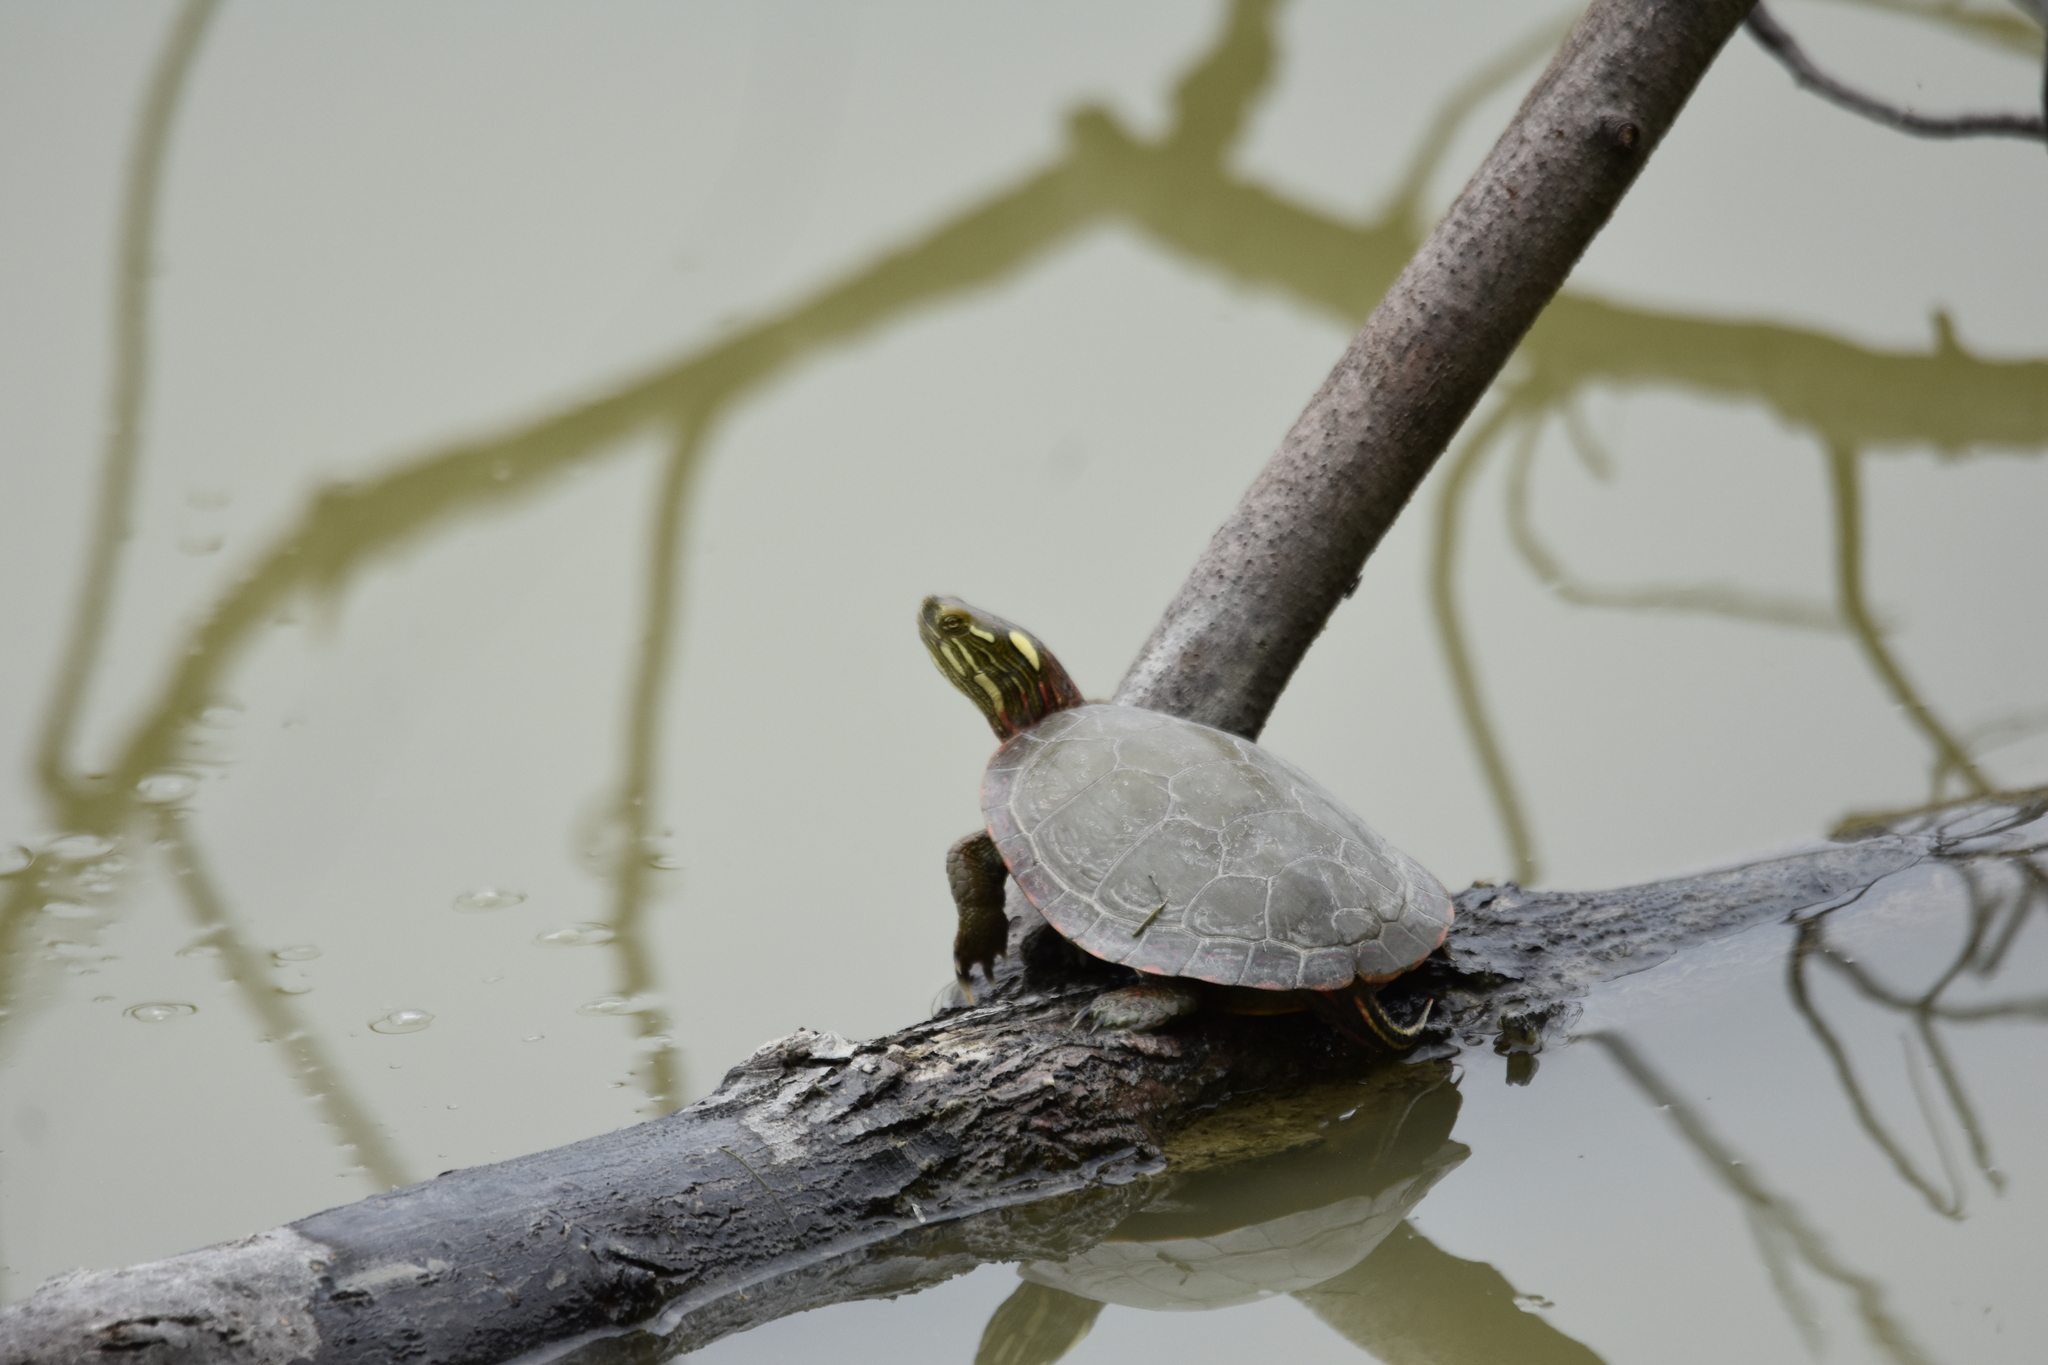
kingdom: Animalia
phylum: Chordata
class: Testudines
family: Emydidae
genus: Chrysemys
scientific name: Chrysemys picta
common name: Painted turtle
